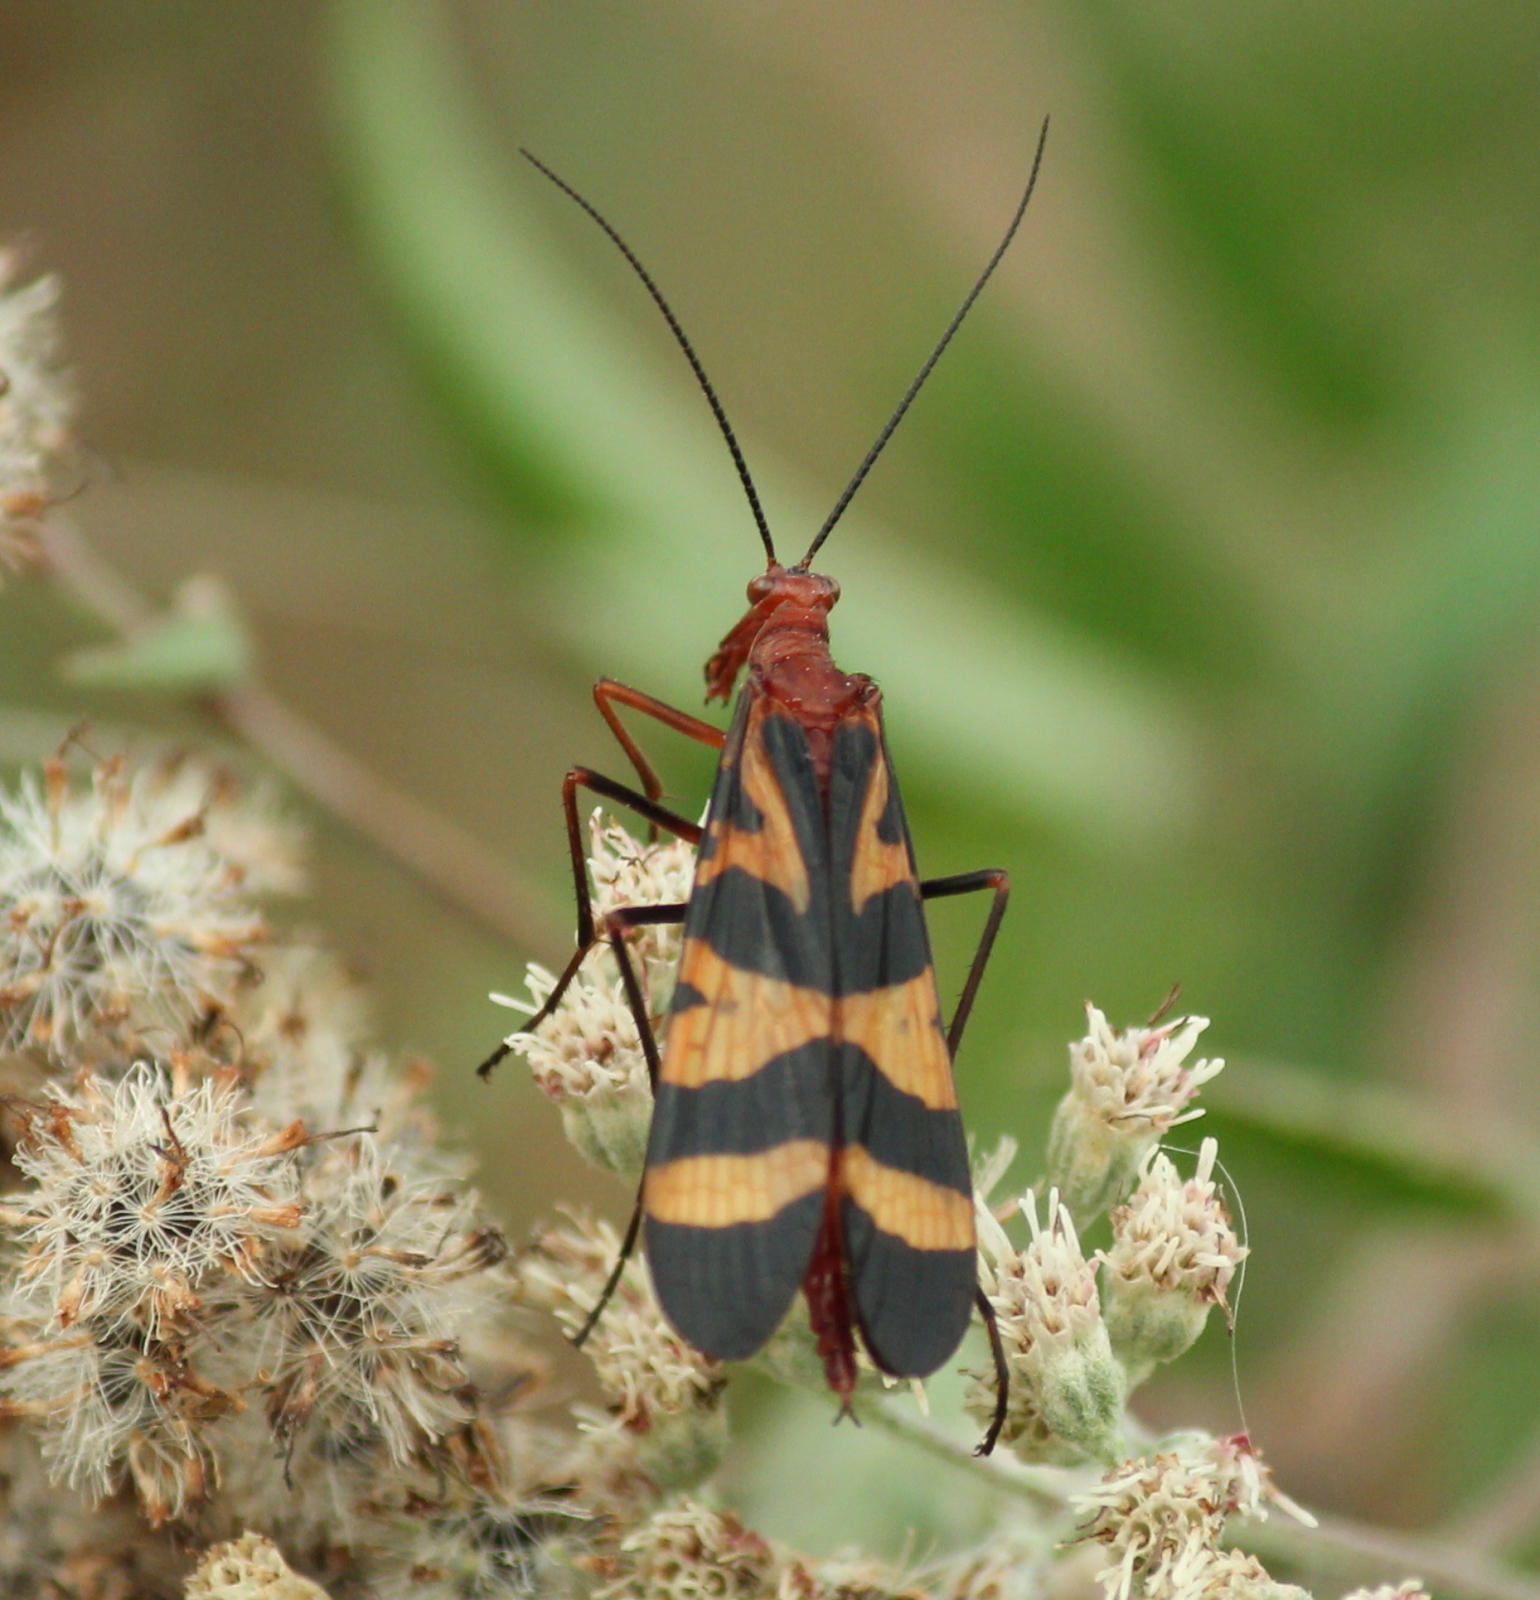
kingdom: Animalia
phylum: Arthropoda
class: Insecta
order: Mecoptera
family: Panorpidae
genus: Panorpa
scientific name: Panorpa nuptialis
